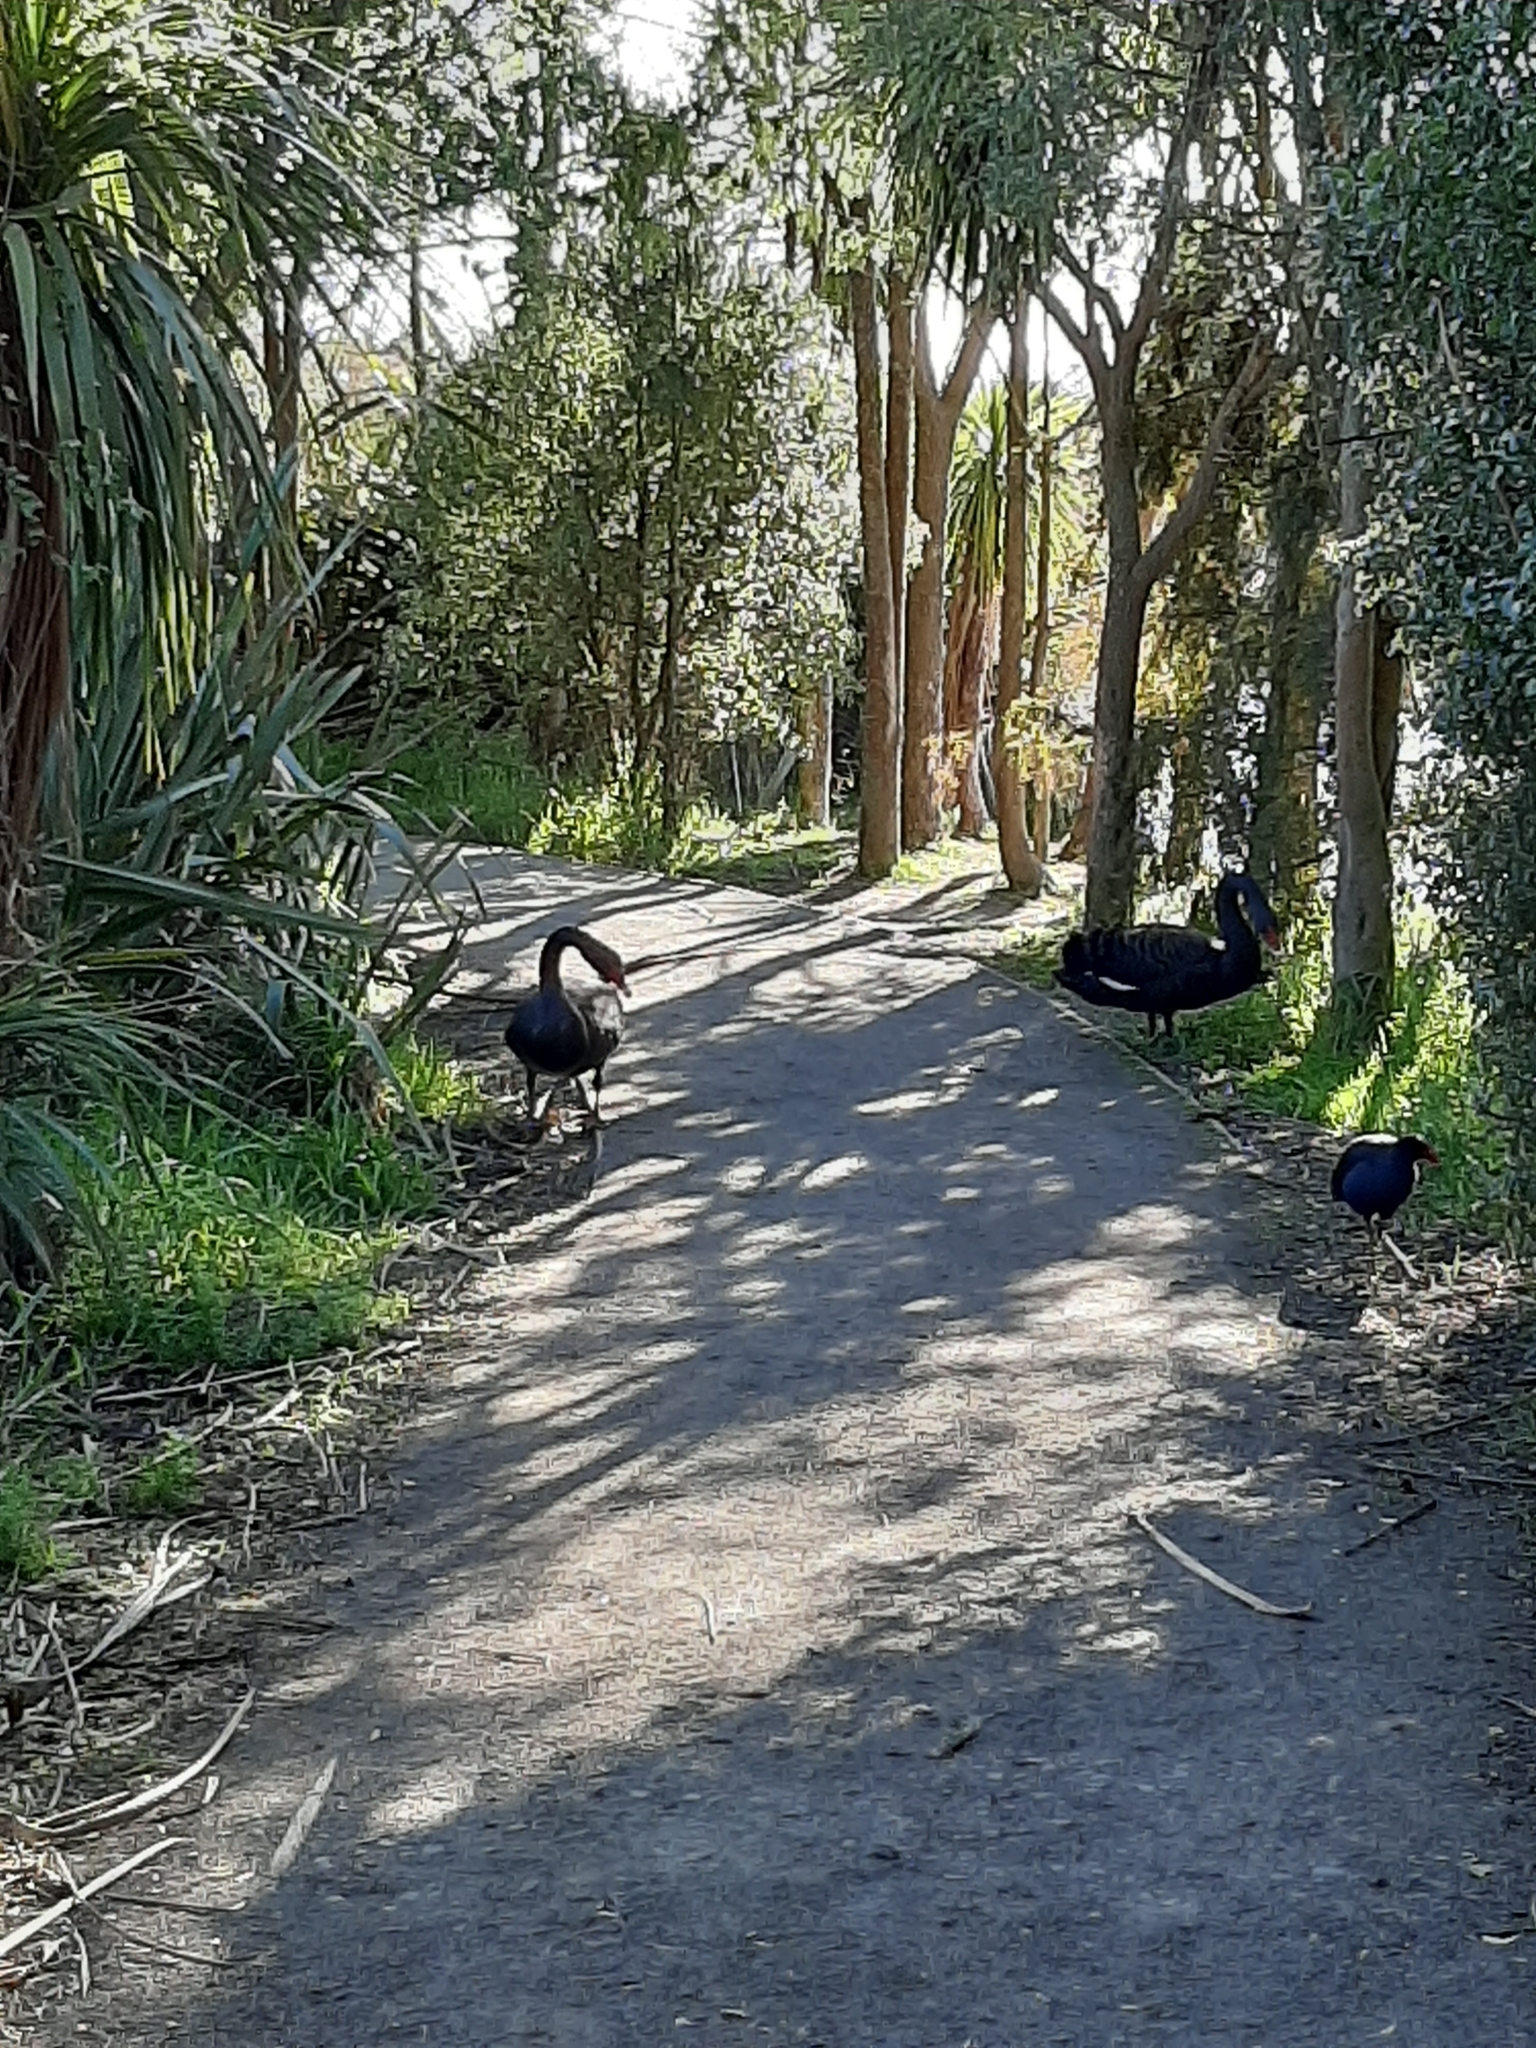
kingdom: Animalia
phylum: Chordata
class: Aves
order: Anseriformes
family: Anatidae
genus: Cygnus
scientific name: Cygnus atratus
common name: Black swan
